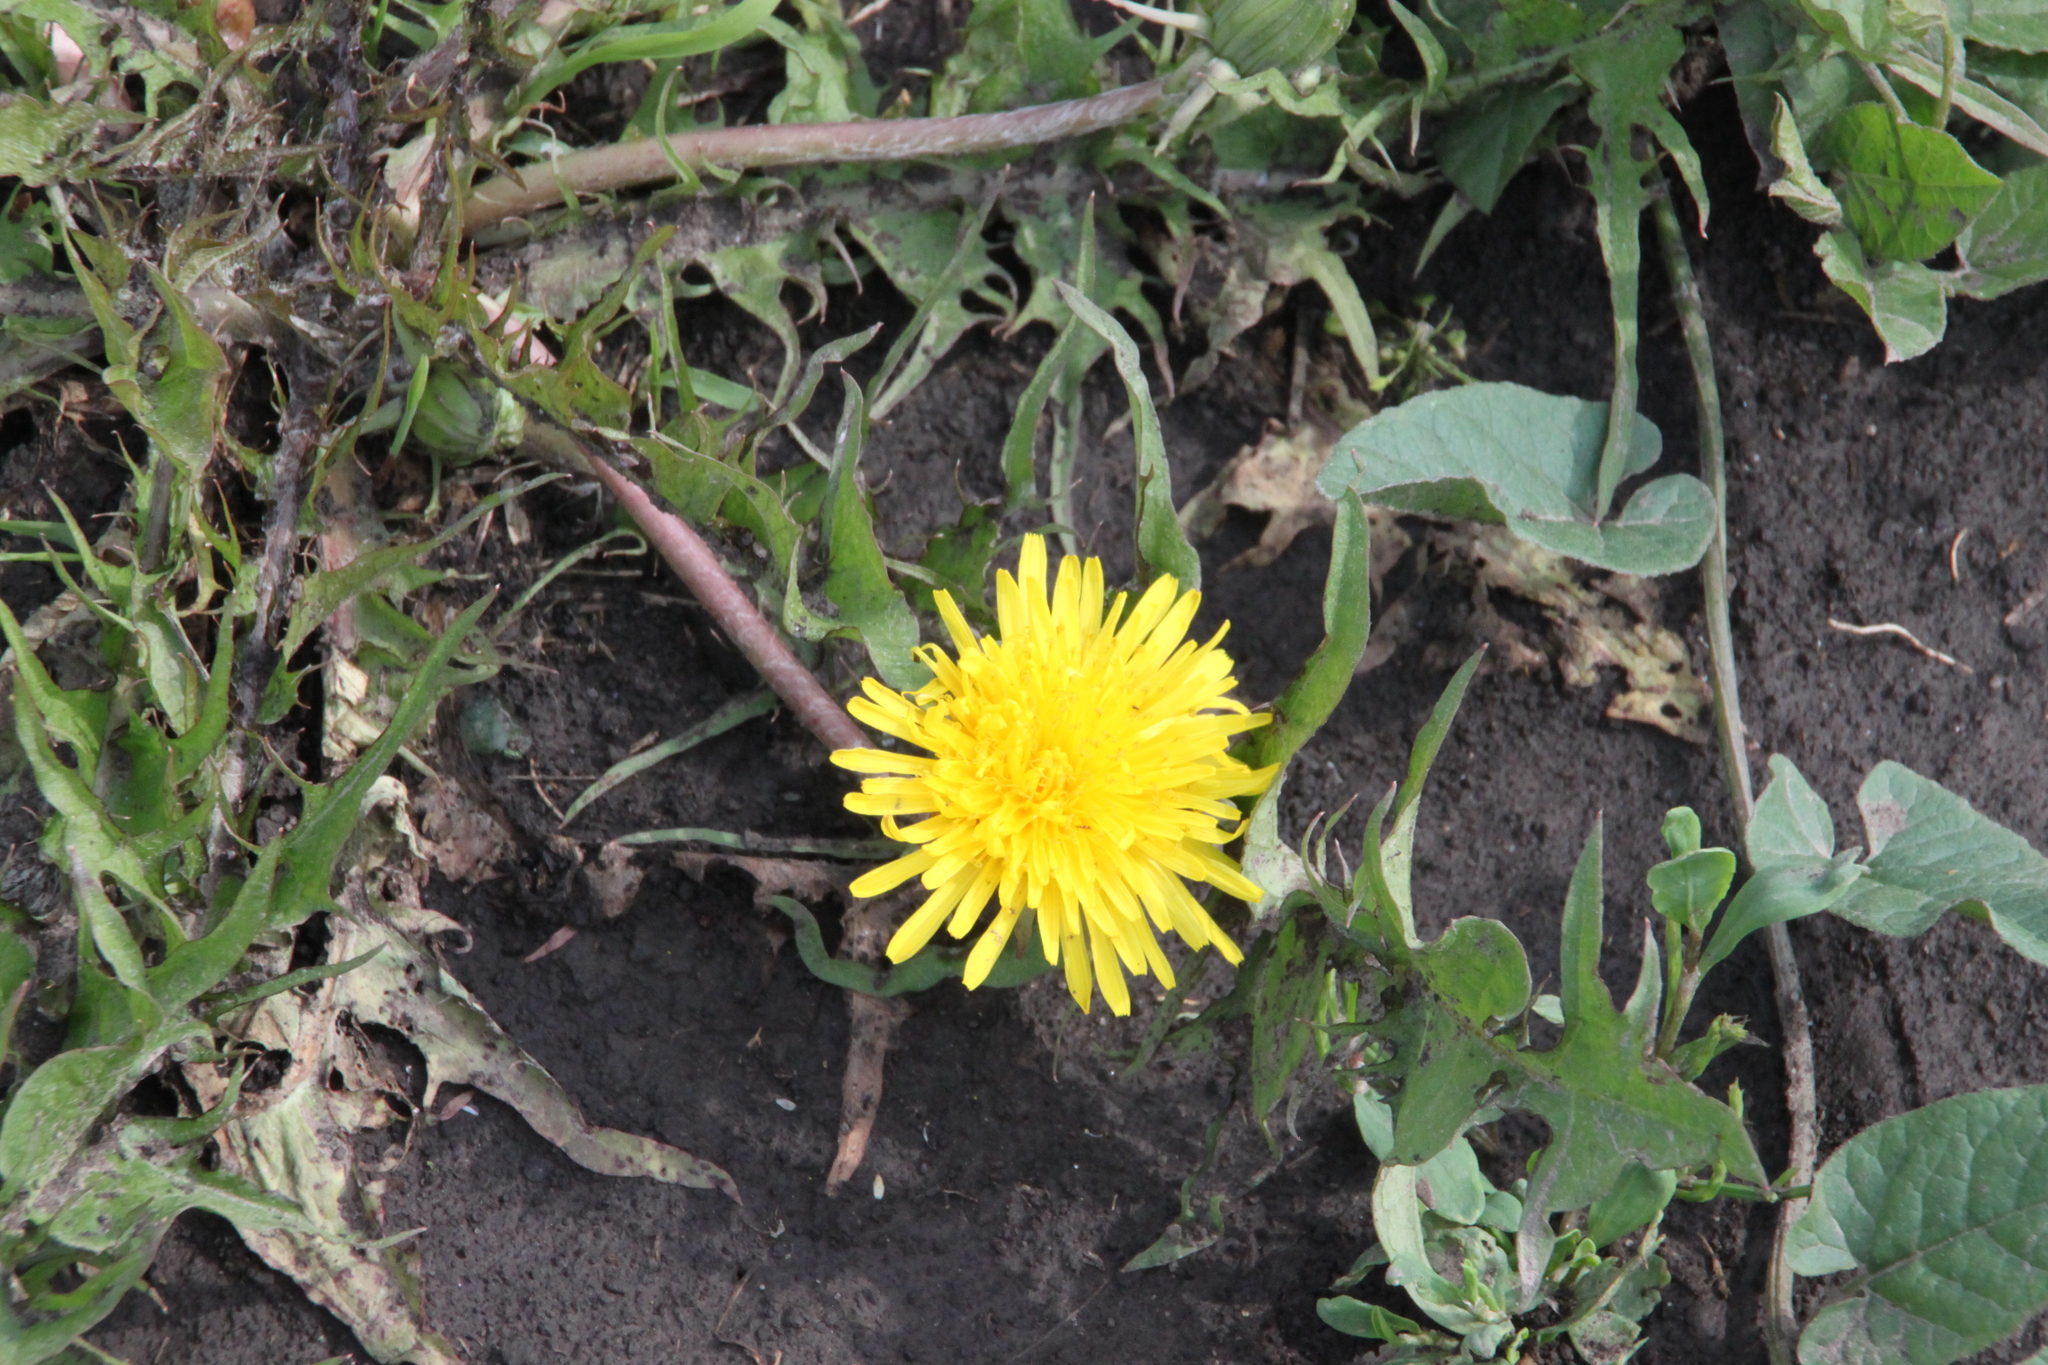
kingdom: Plantae
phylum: Tracheophyta
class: Magnoliopsida
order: Asterales
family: Asteraceae
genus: Taraxacum
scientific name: Taraxacum officinale
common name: Common dandelion
